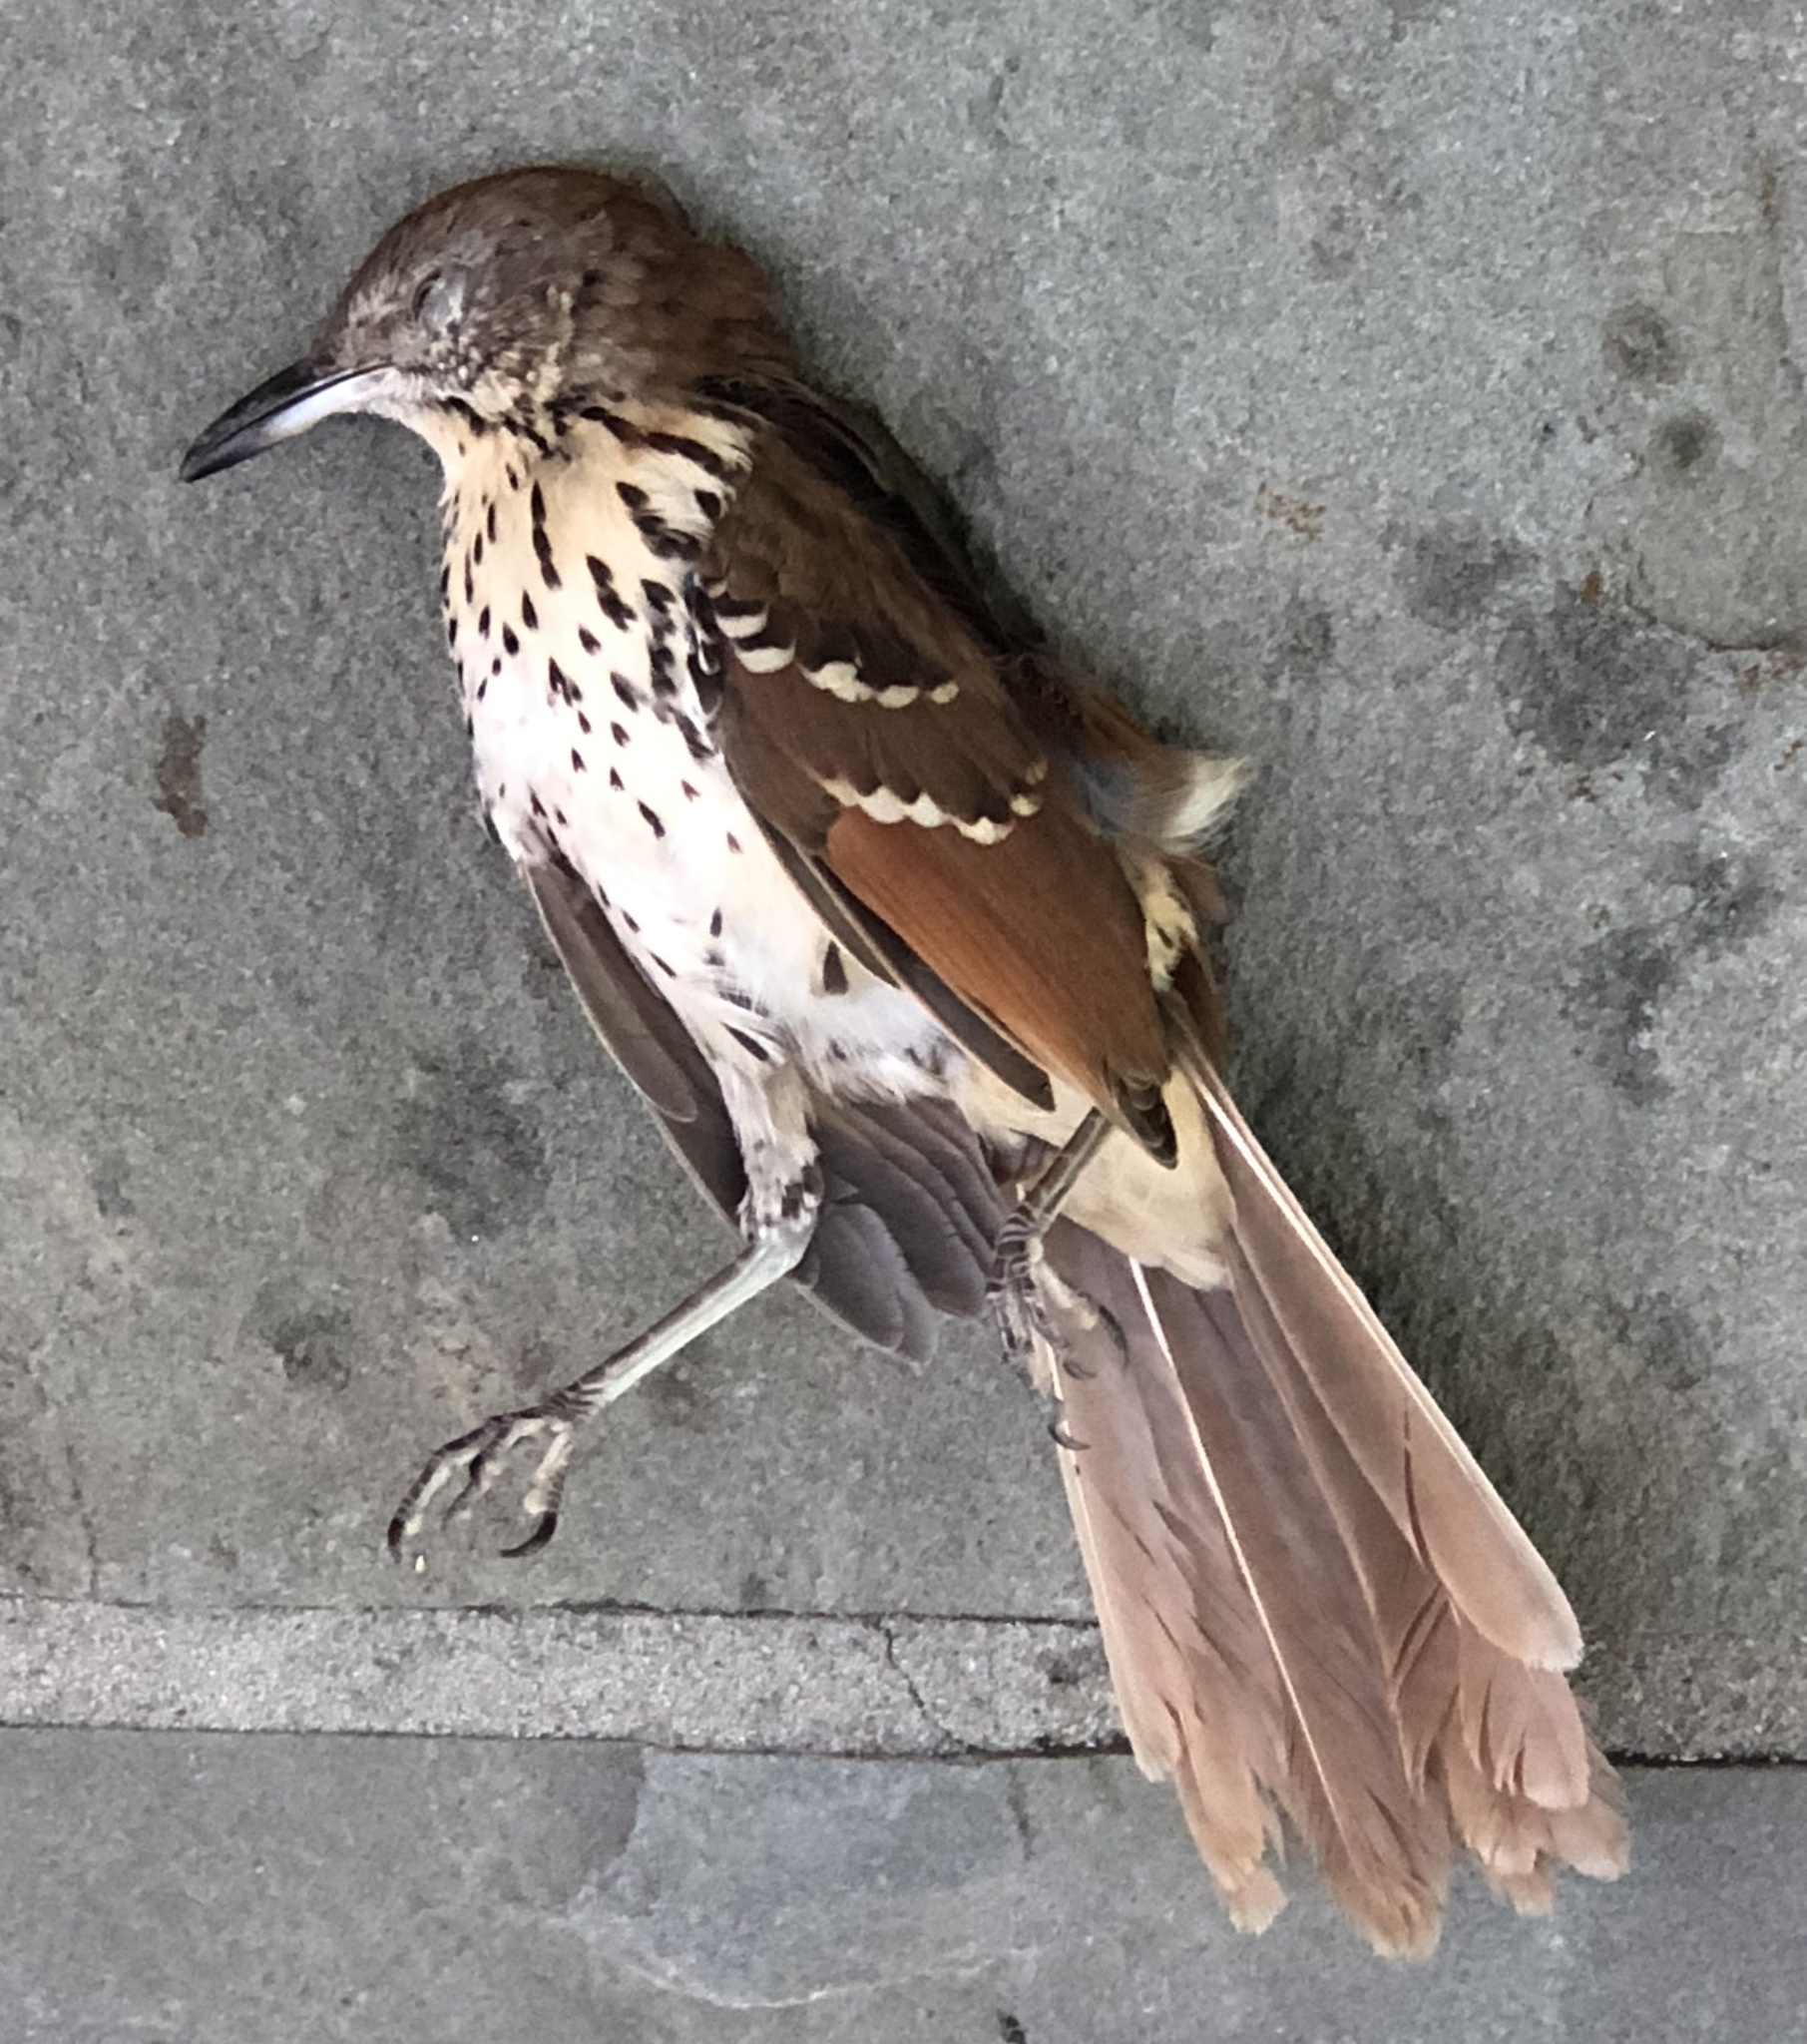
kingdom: Animalia
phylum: Chordata
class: Aves
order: Passeriformes
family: Mimidae
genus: Toxostoma
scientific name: Toxostoma rufum
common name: Brown thrasher
